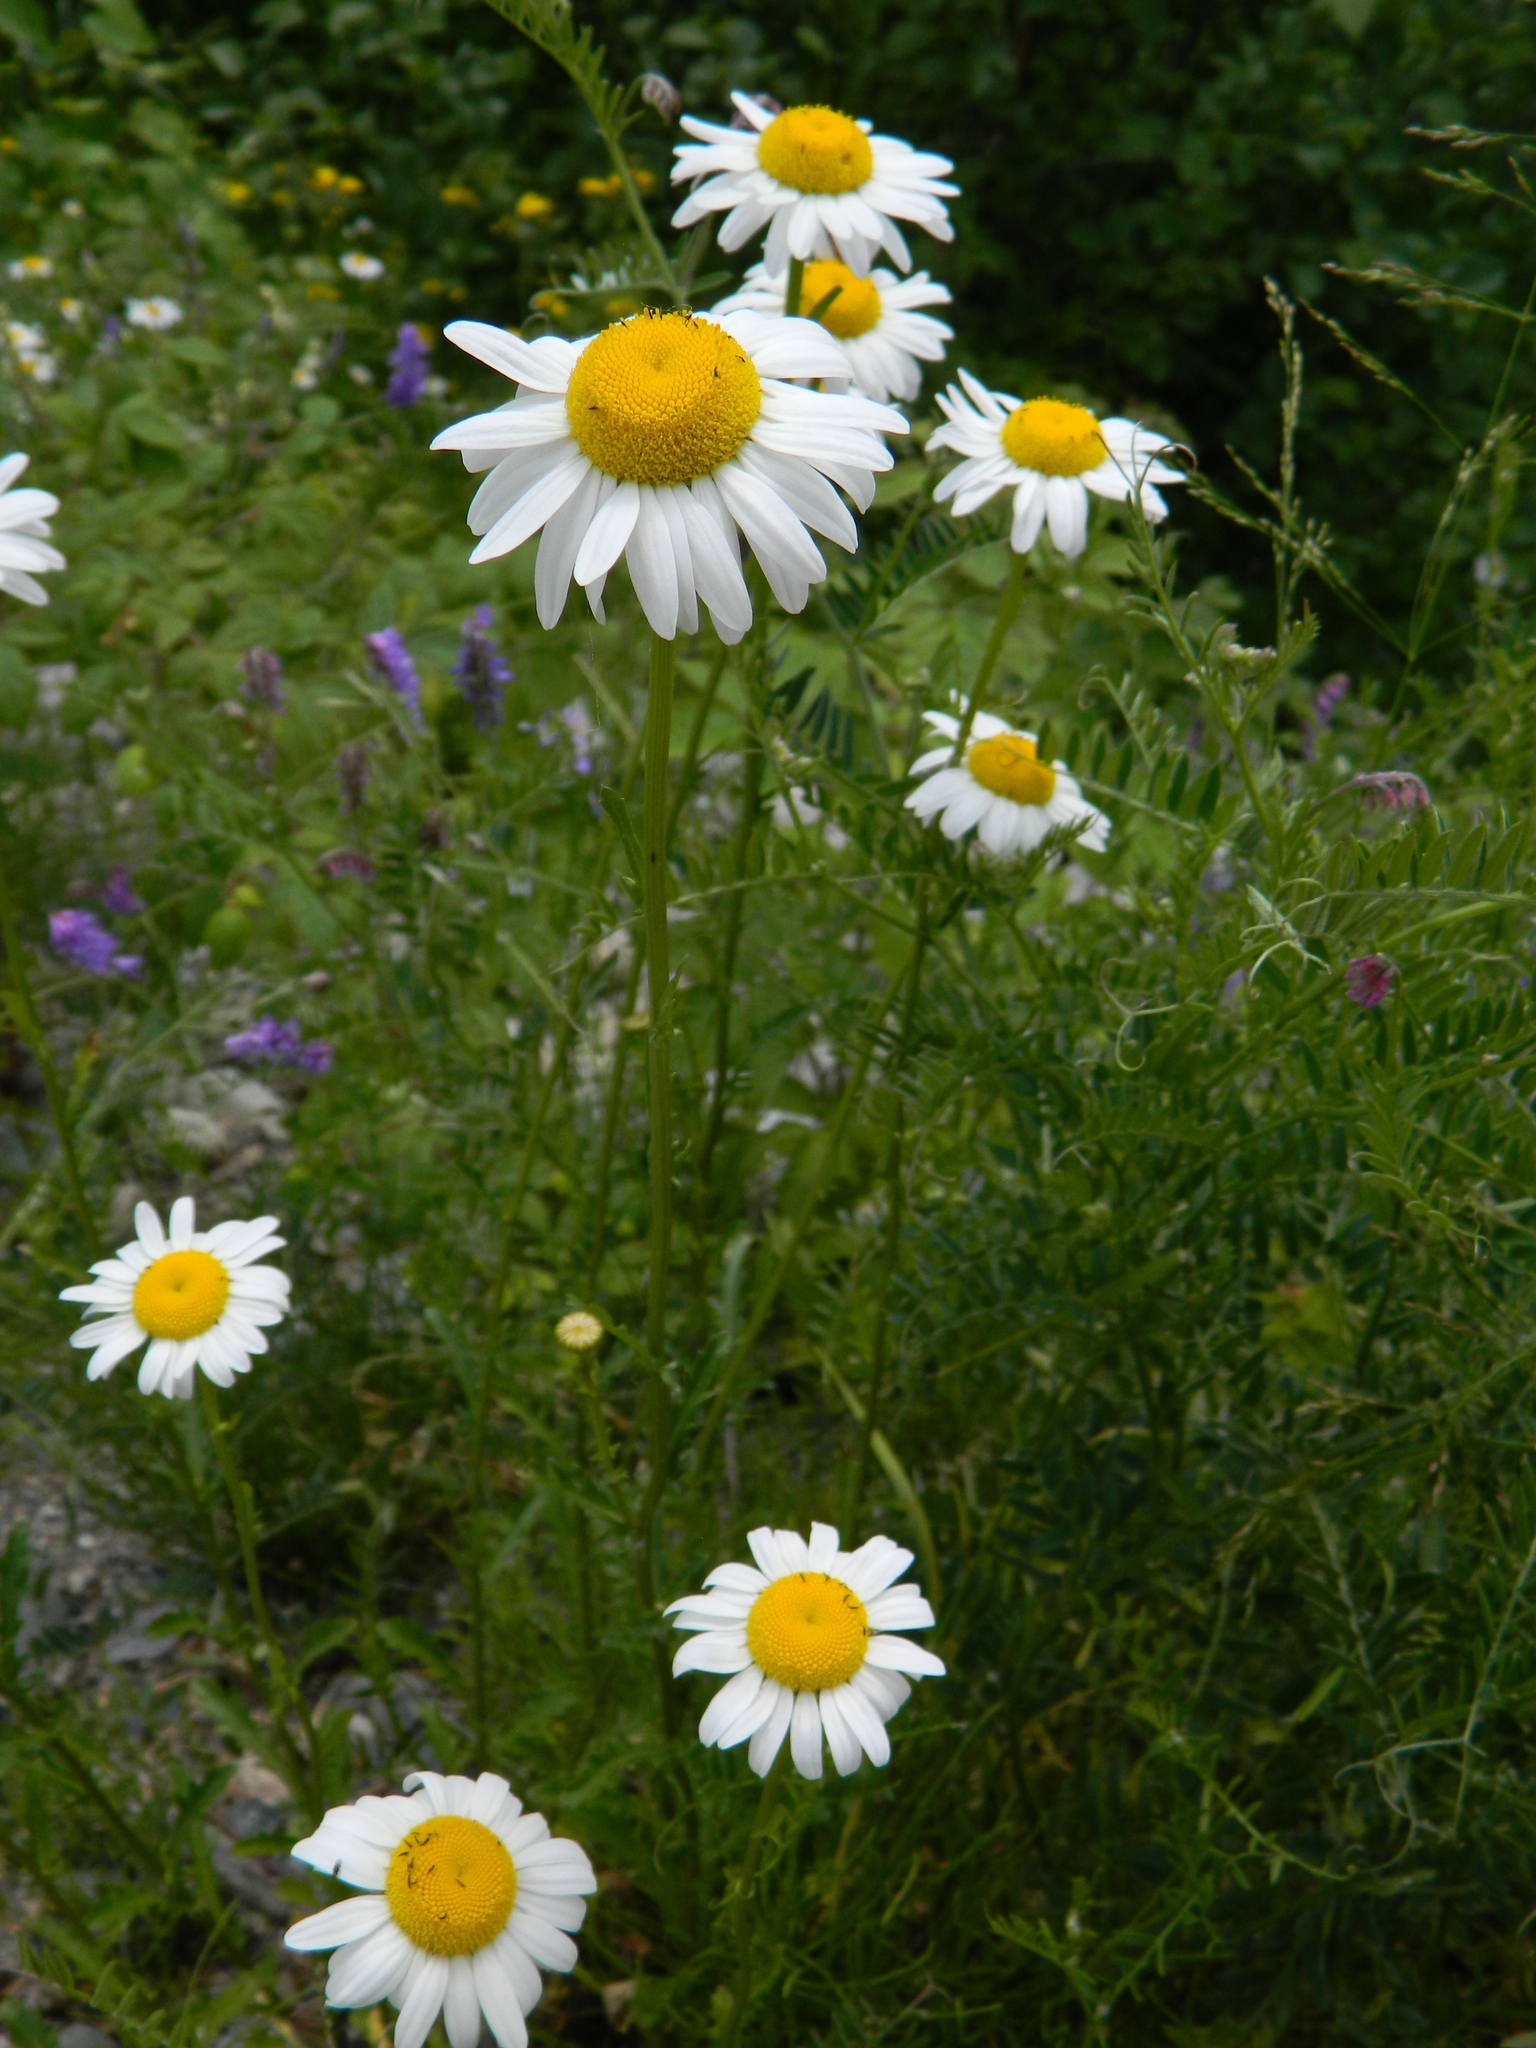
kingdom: Plantae
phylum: Tracheophyta
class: Magnoliopsida
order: Asterales
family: Asteraceae
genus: Leucanthemum
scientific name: Leucanthemum vulgare
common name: Oxeye daisy
